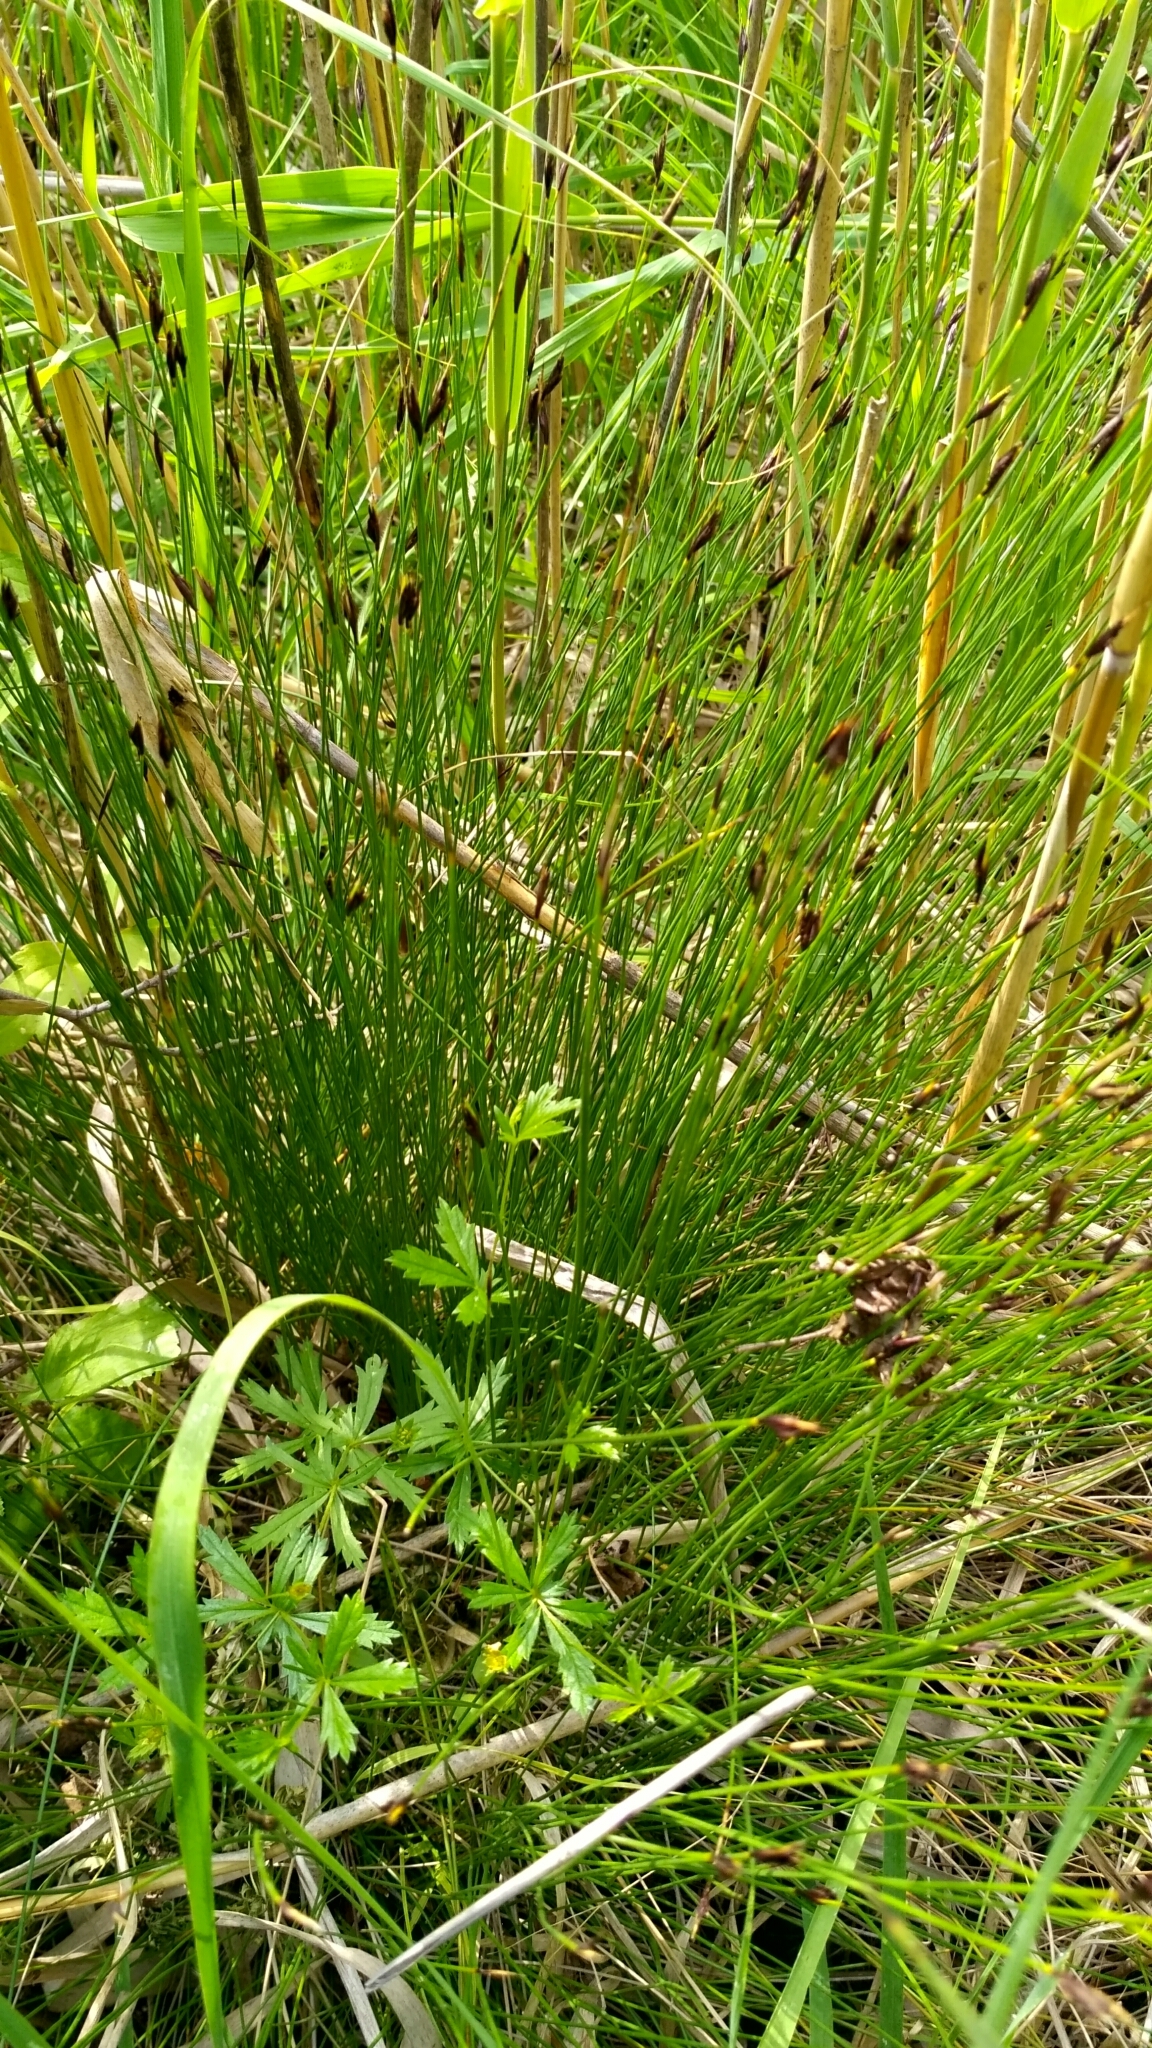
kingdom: Plantae
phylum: Tracheophyta
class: Liliopsida
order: Poales
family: Cyperaceae
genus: Schoenus
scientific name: Schoenus ferrugineus
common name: Brown bog-rush
